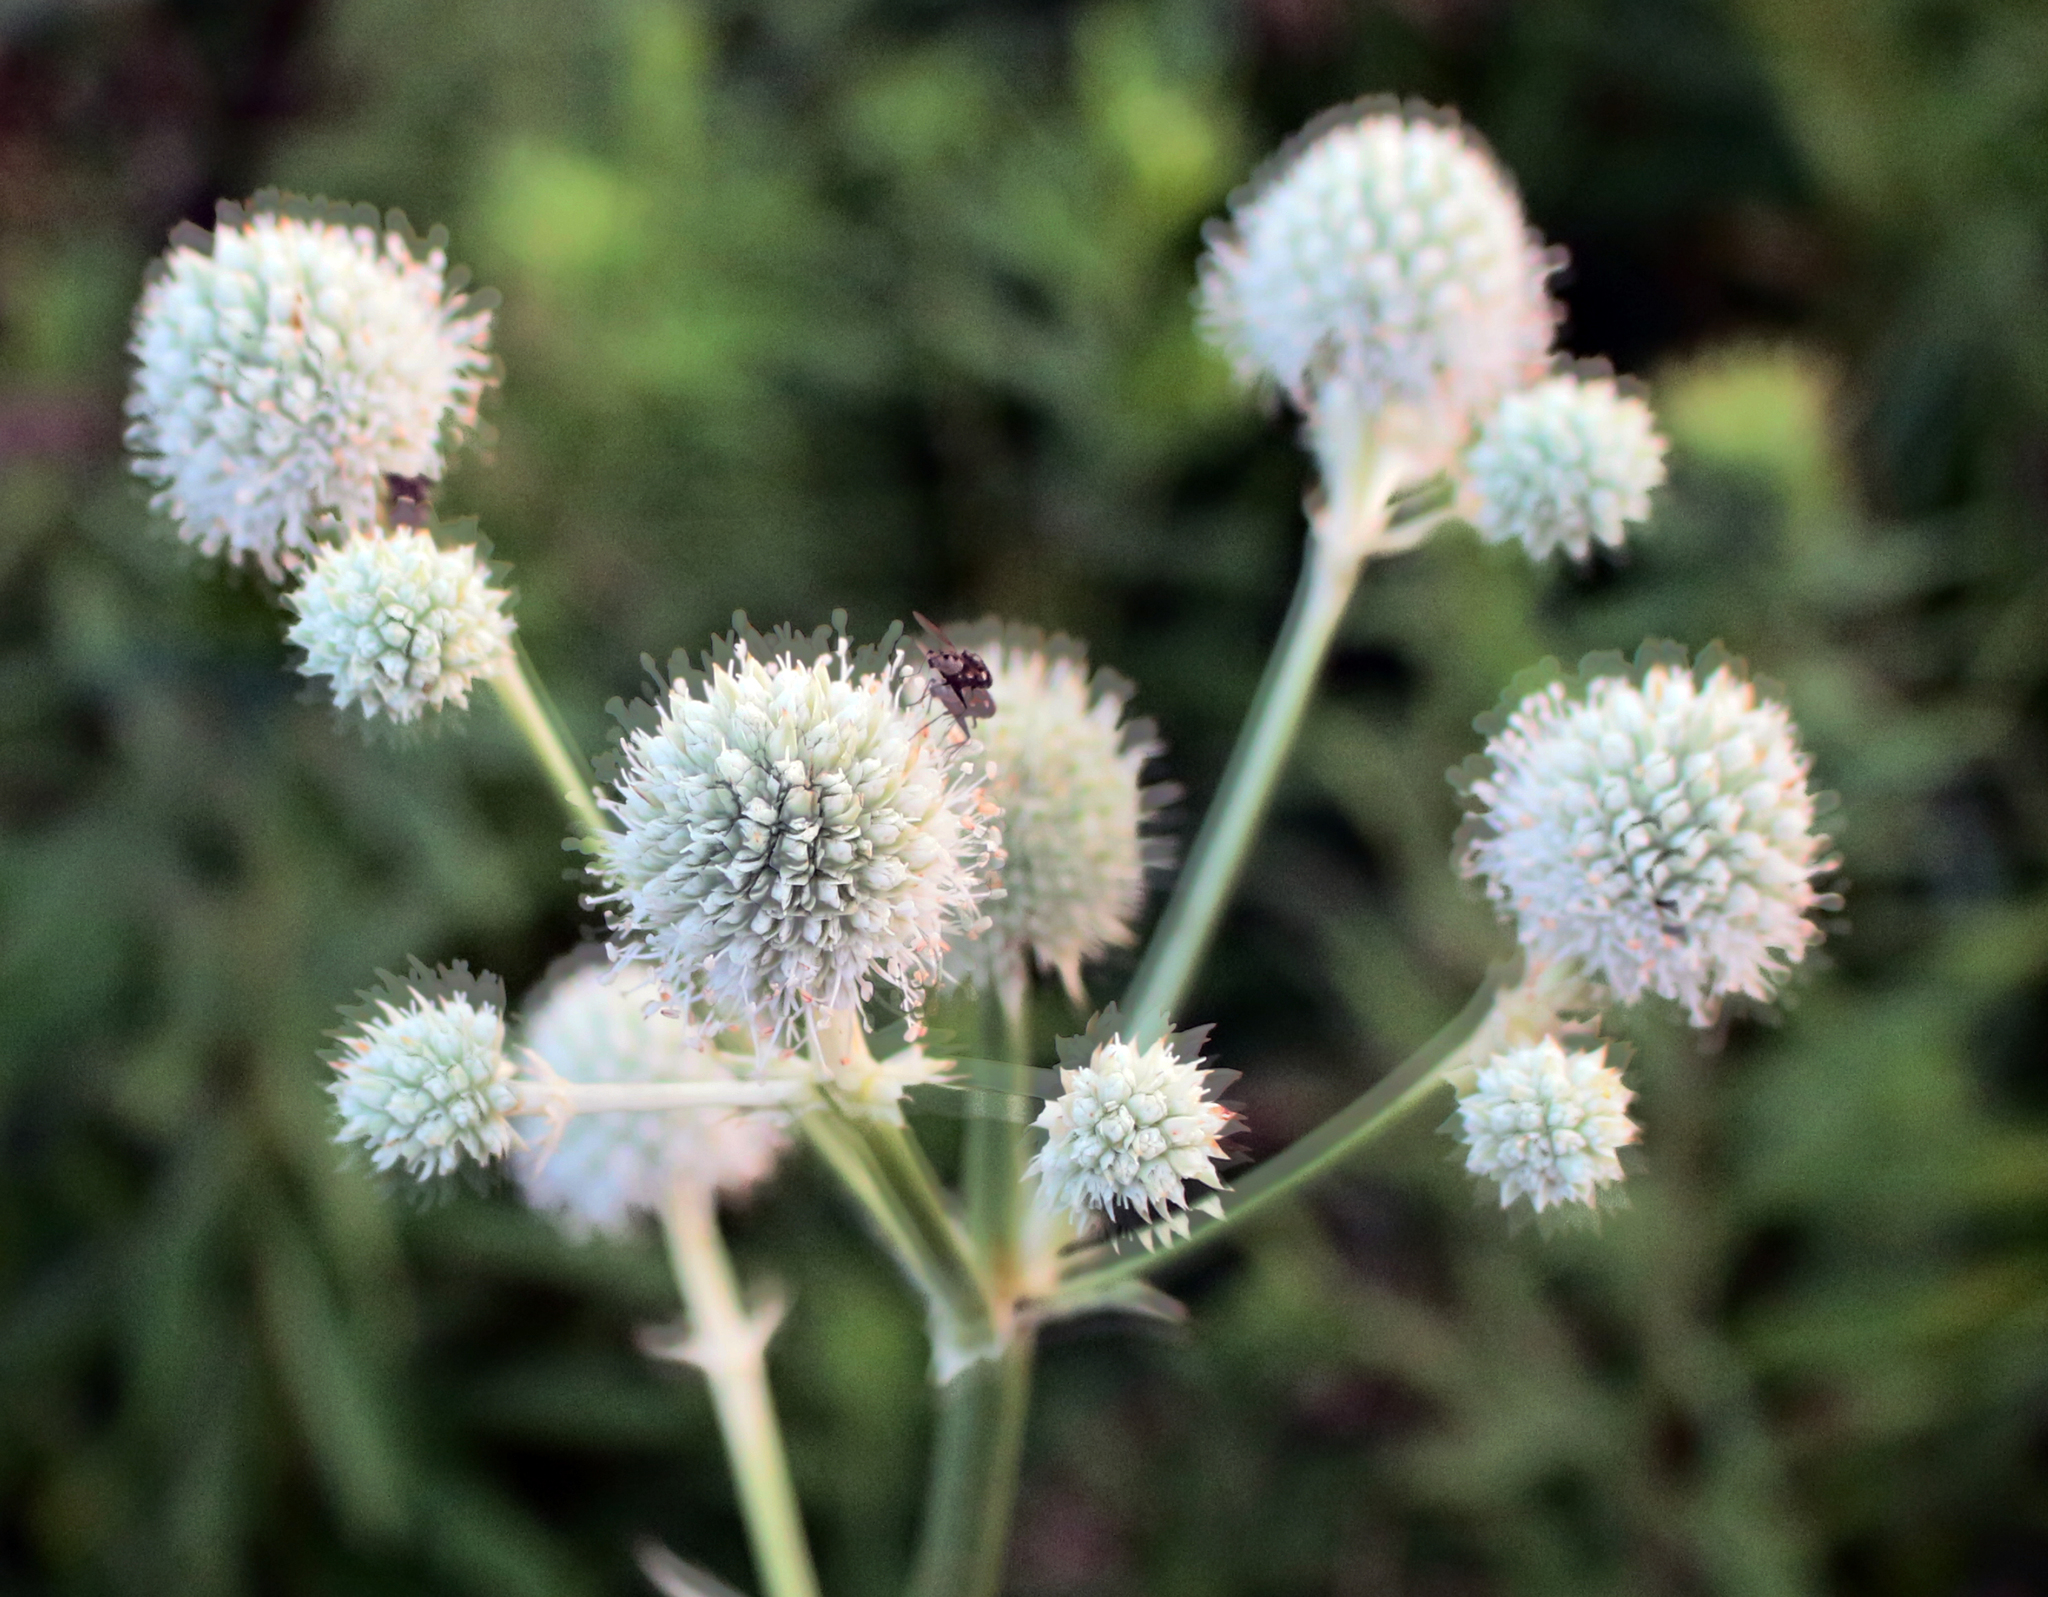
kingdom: Plantae
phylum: Tracheophyta
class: Magnoliopsida
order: Apiales
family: Apiaceae
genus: Eryngium
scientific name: Eryngium yuccifolium
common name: Button eryngo
